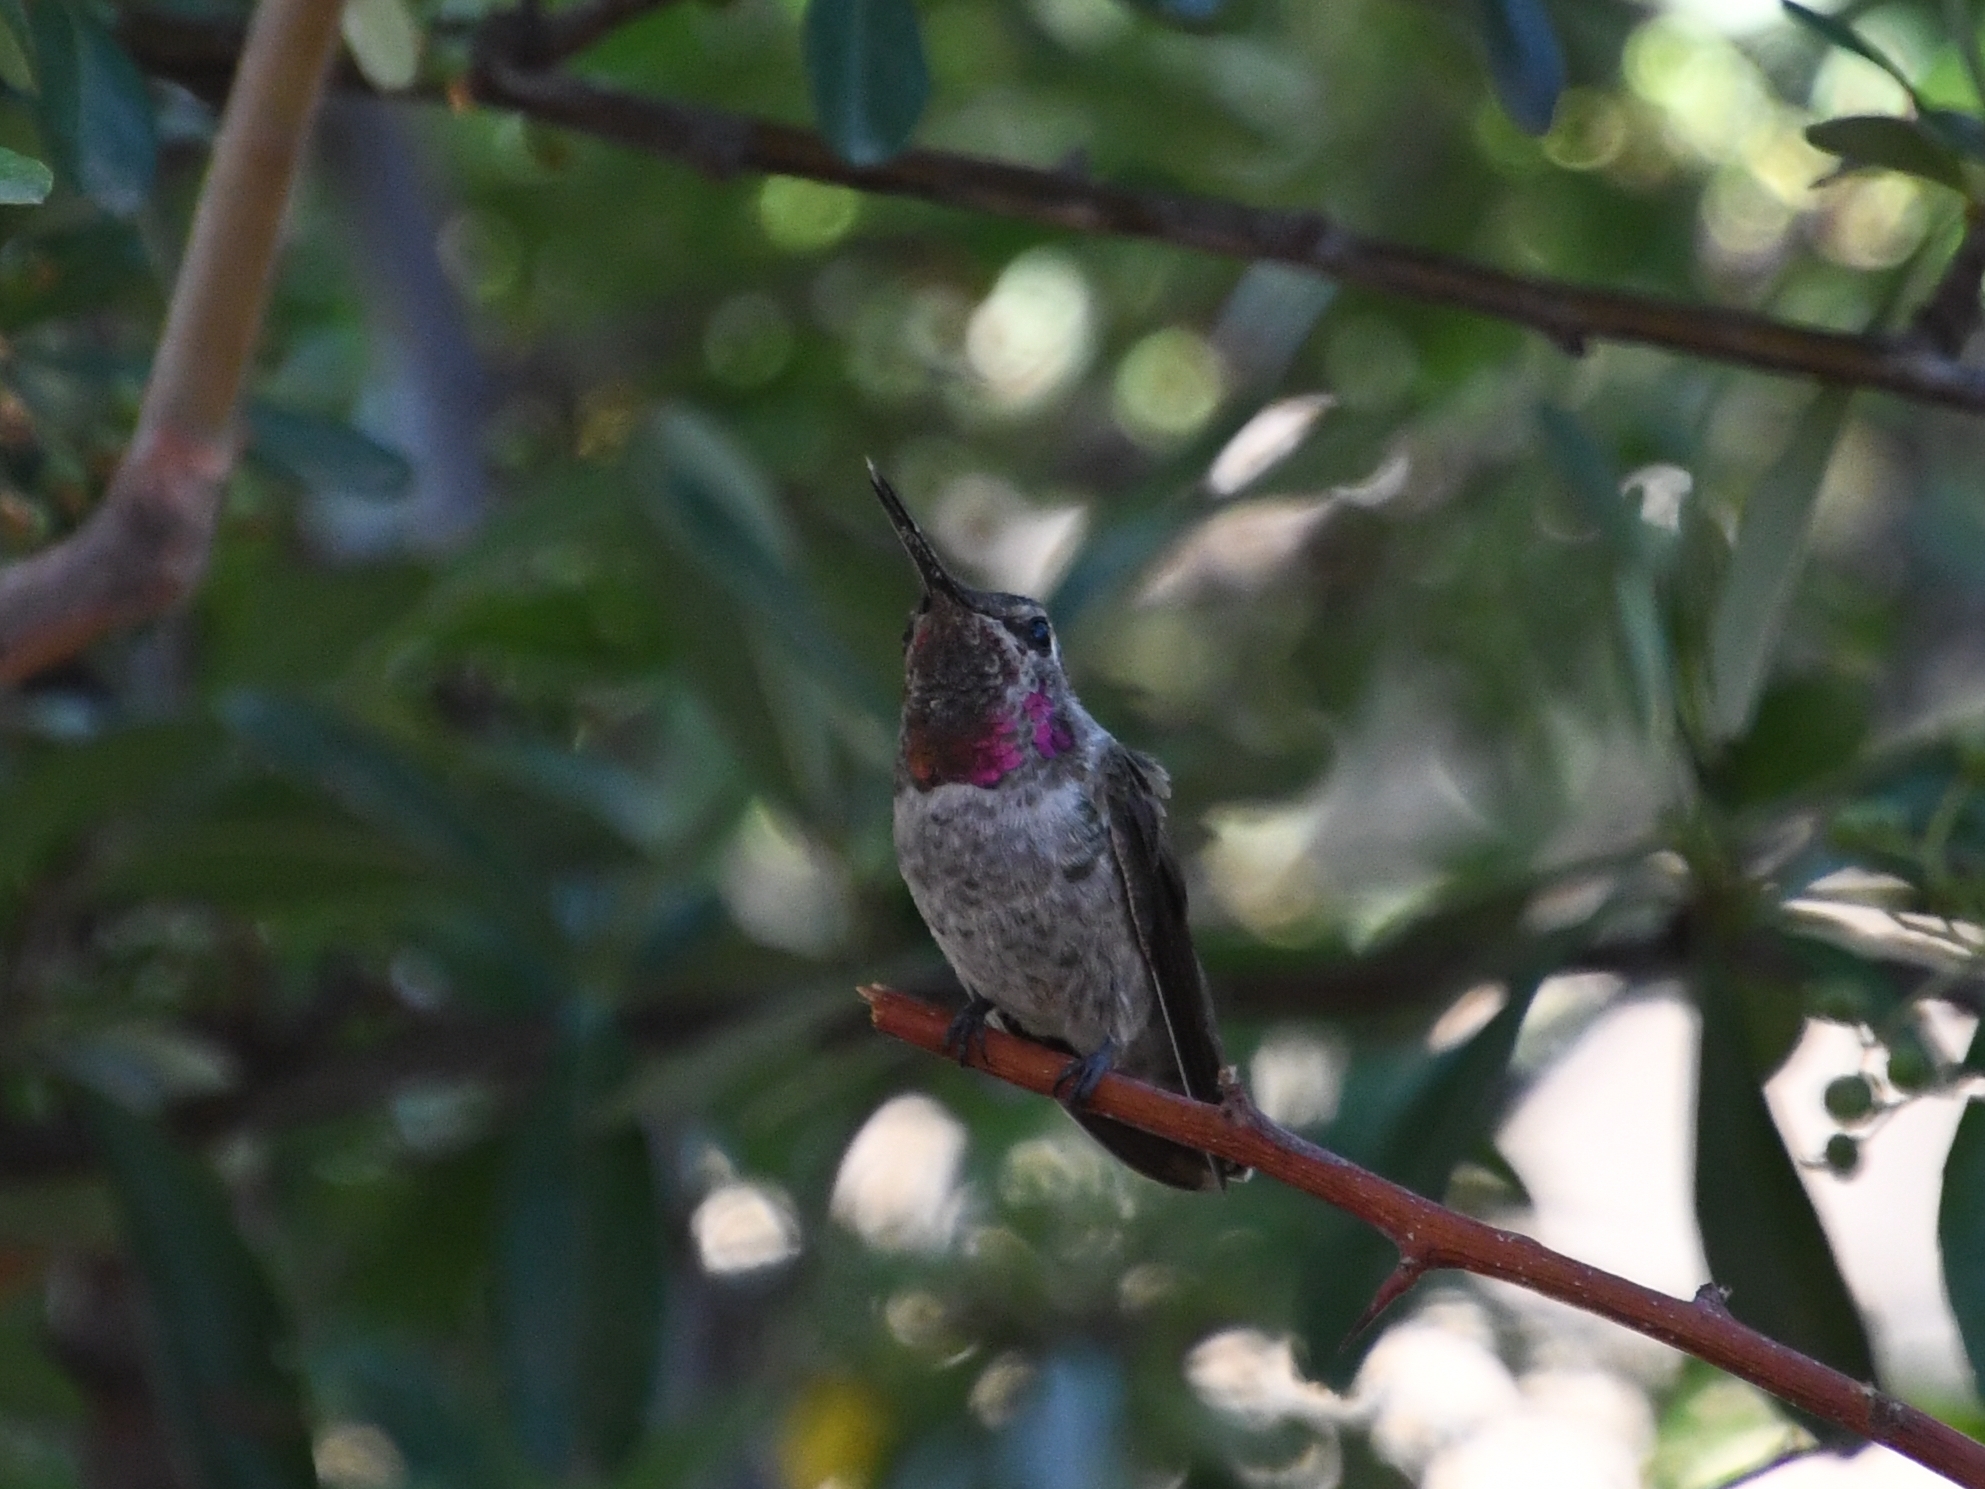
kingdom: Animalia
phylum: Chordata
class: Aves
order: Apodiformes
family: Trochilidae
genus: Calypte
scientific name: Calypte anna
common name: Anna's hummingbird
